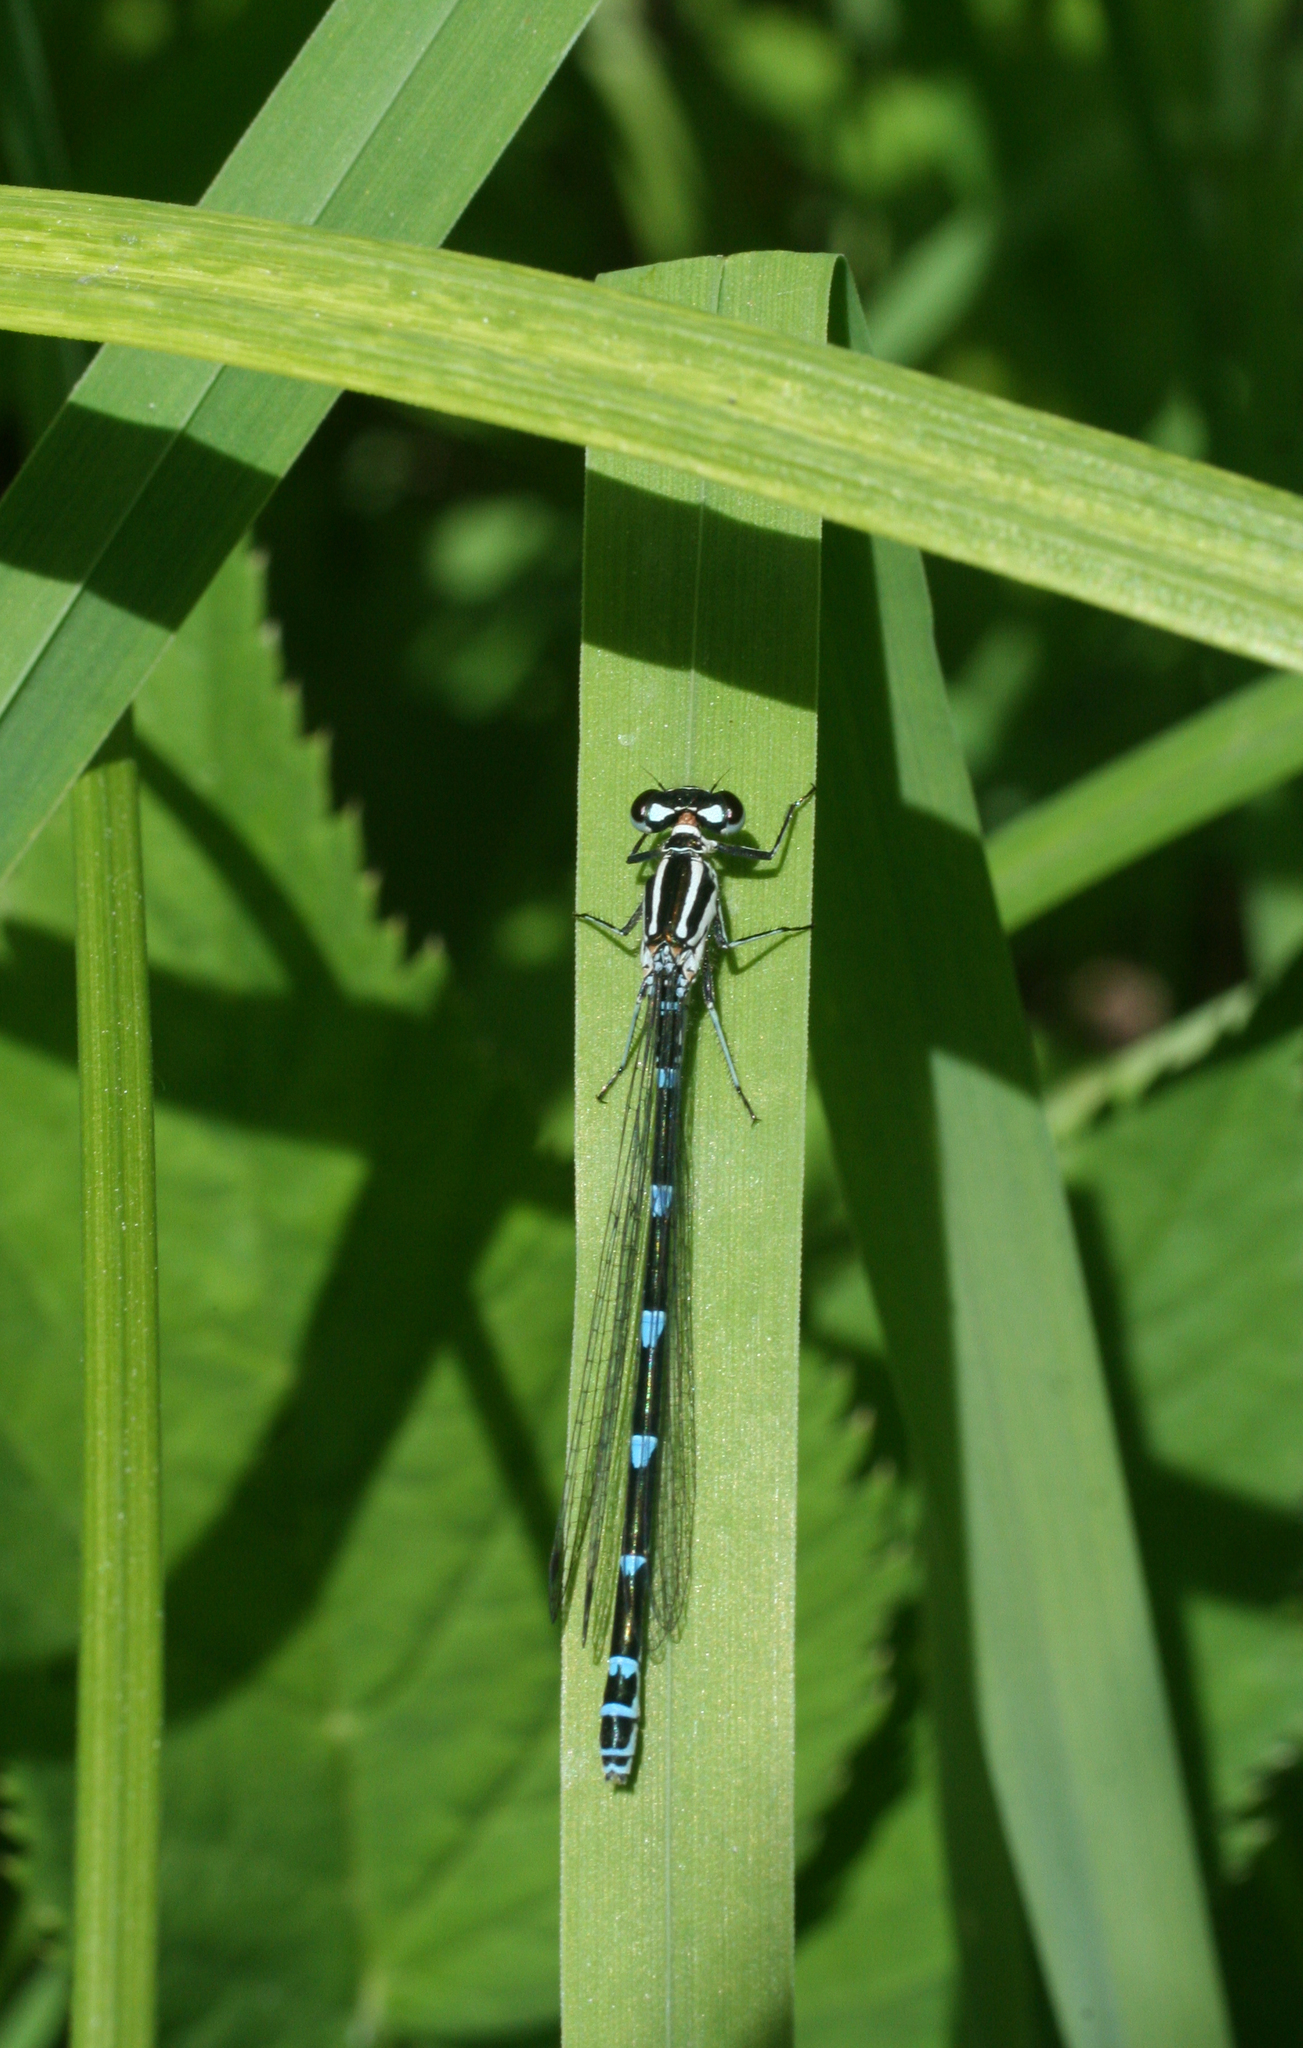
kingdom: Animalia
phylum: Arthropoda
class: Insecta
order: Odonata
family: Coenagrionidae
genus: Coenagrion
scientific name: Coenagrion puella
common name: Azure damselfly
